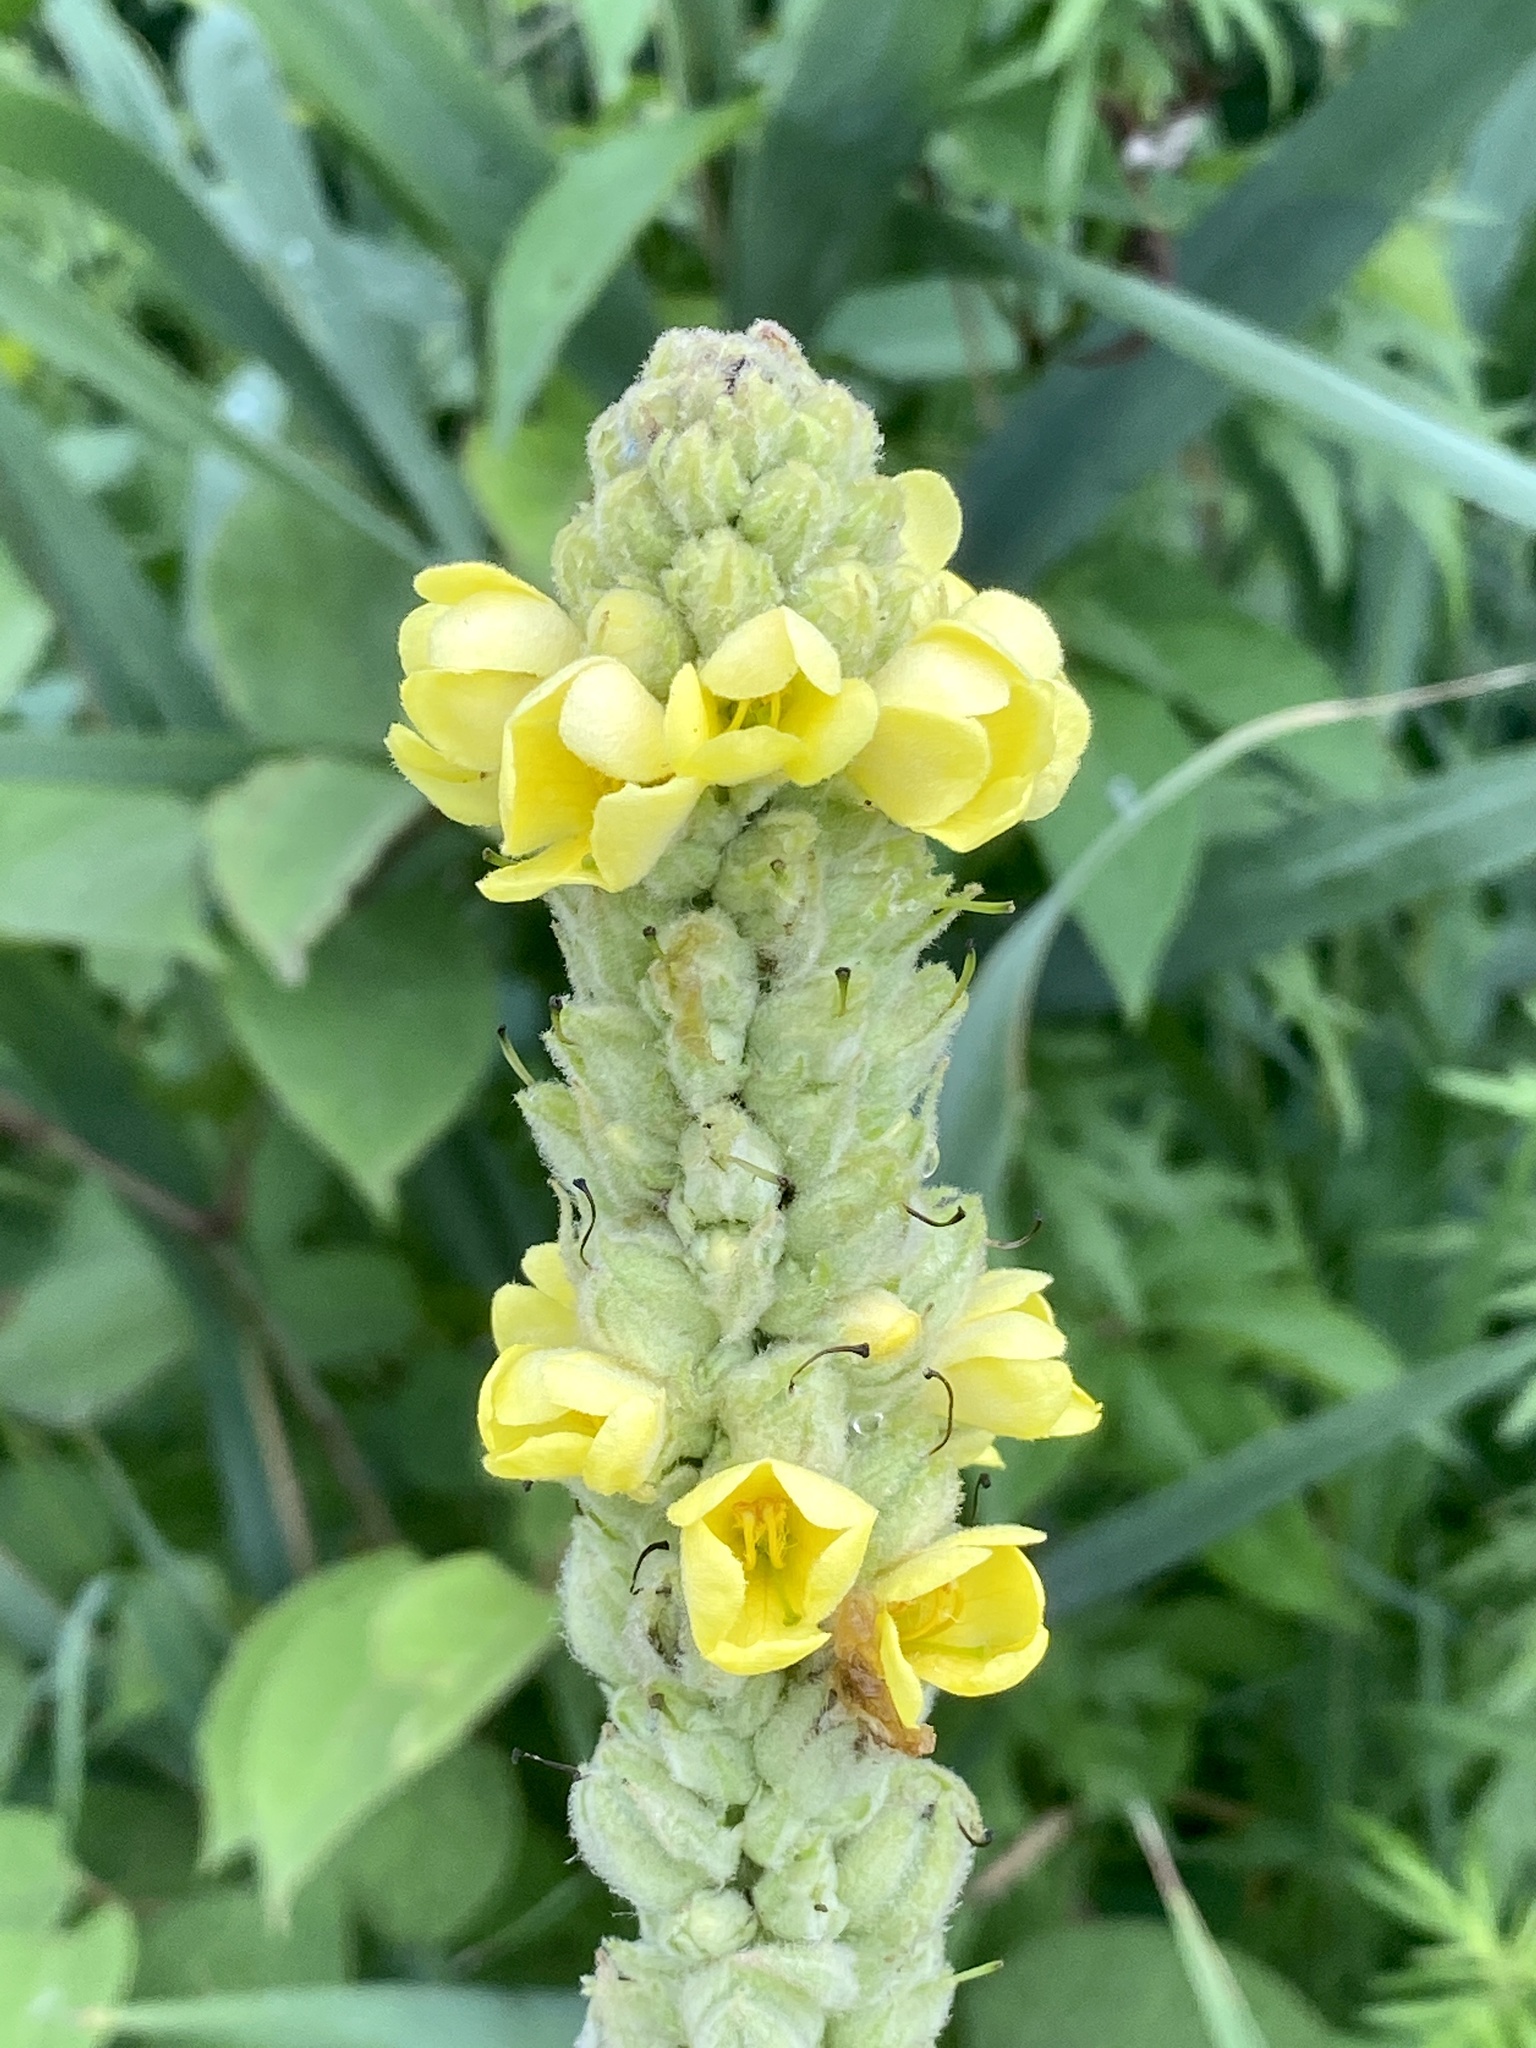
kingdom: Plantae
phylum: Tracheophyta
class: Magnoliopsida
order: Lamiales
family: Scrophulariaceae
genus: Verbascum
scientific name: Verbascum thapsus
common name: Common mullein
